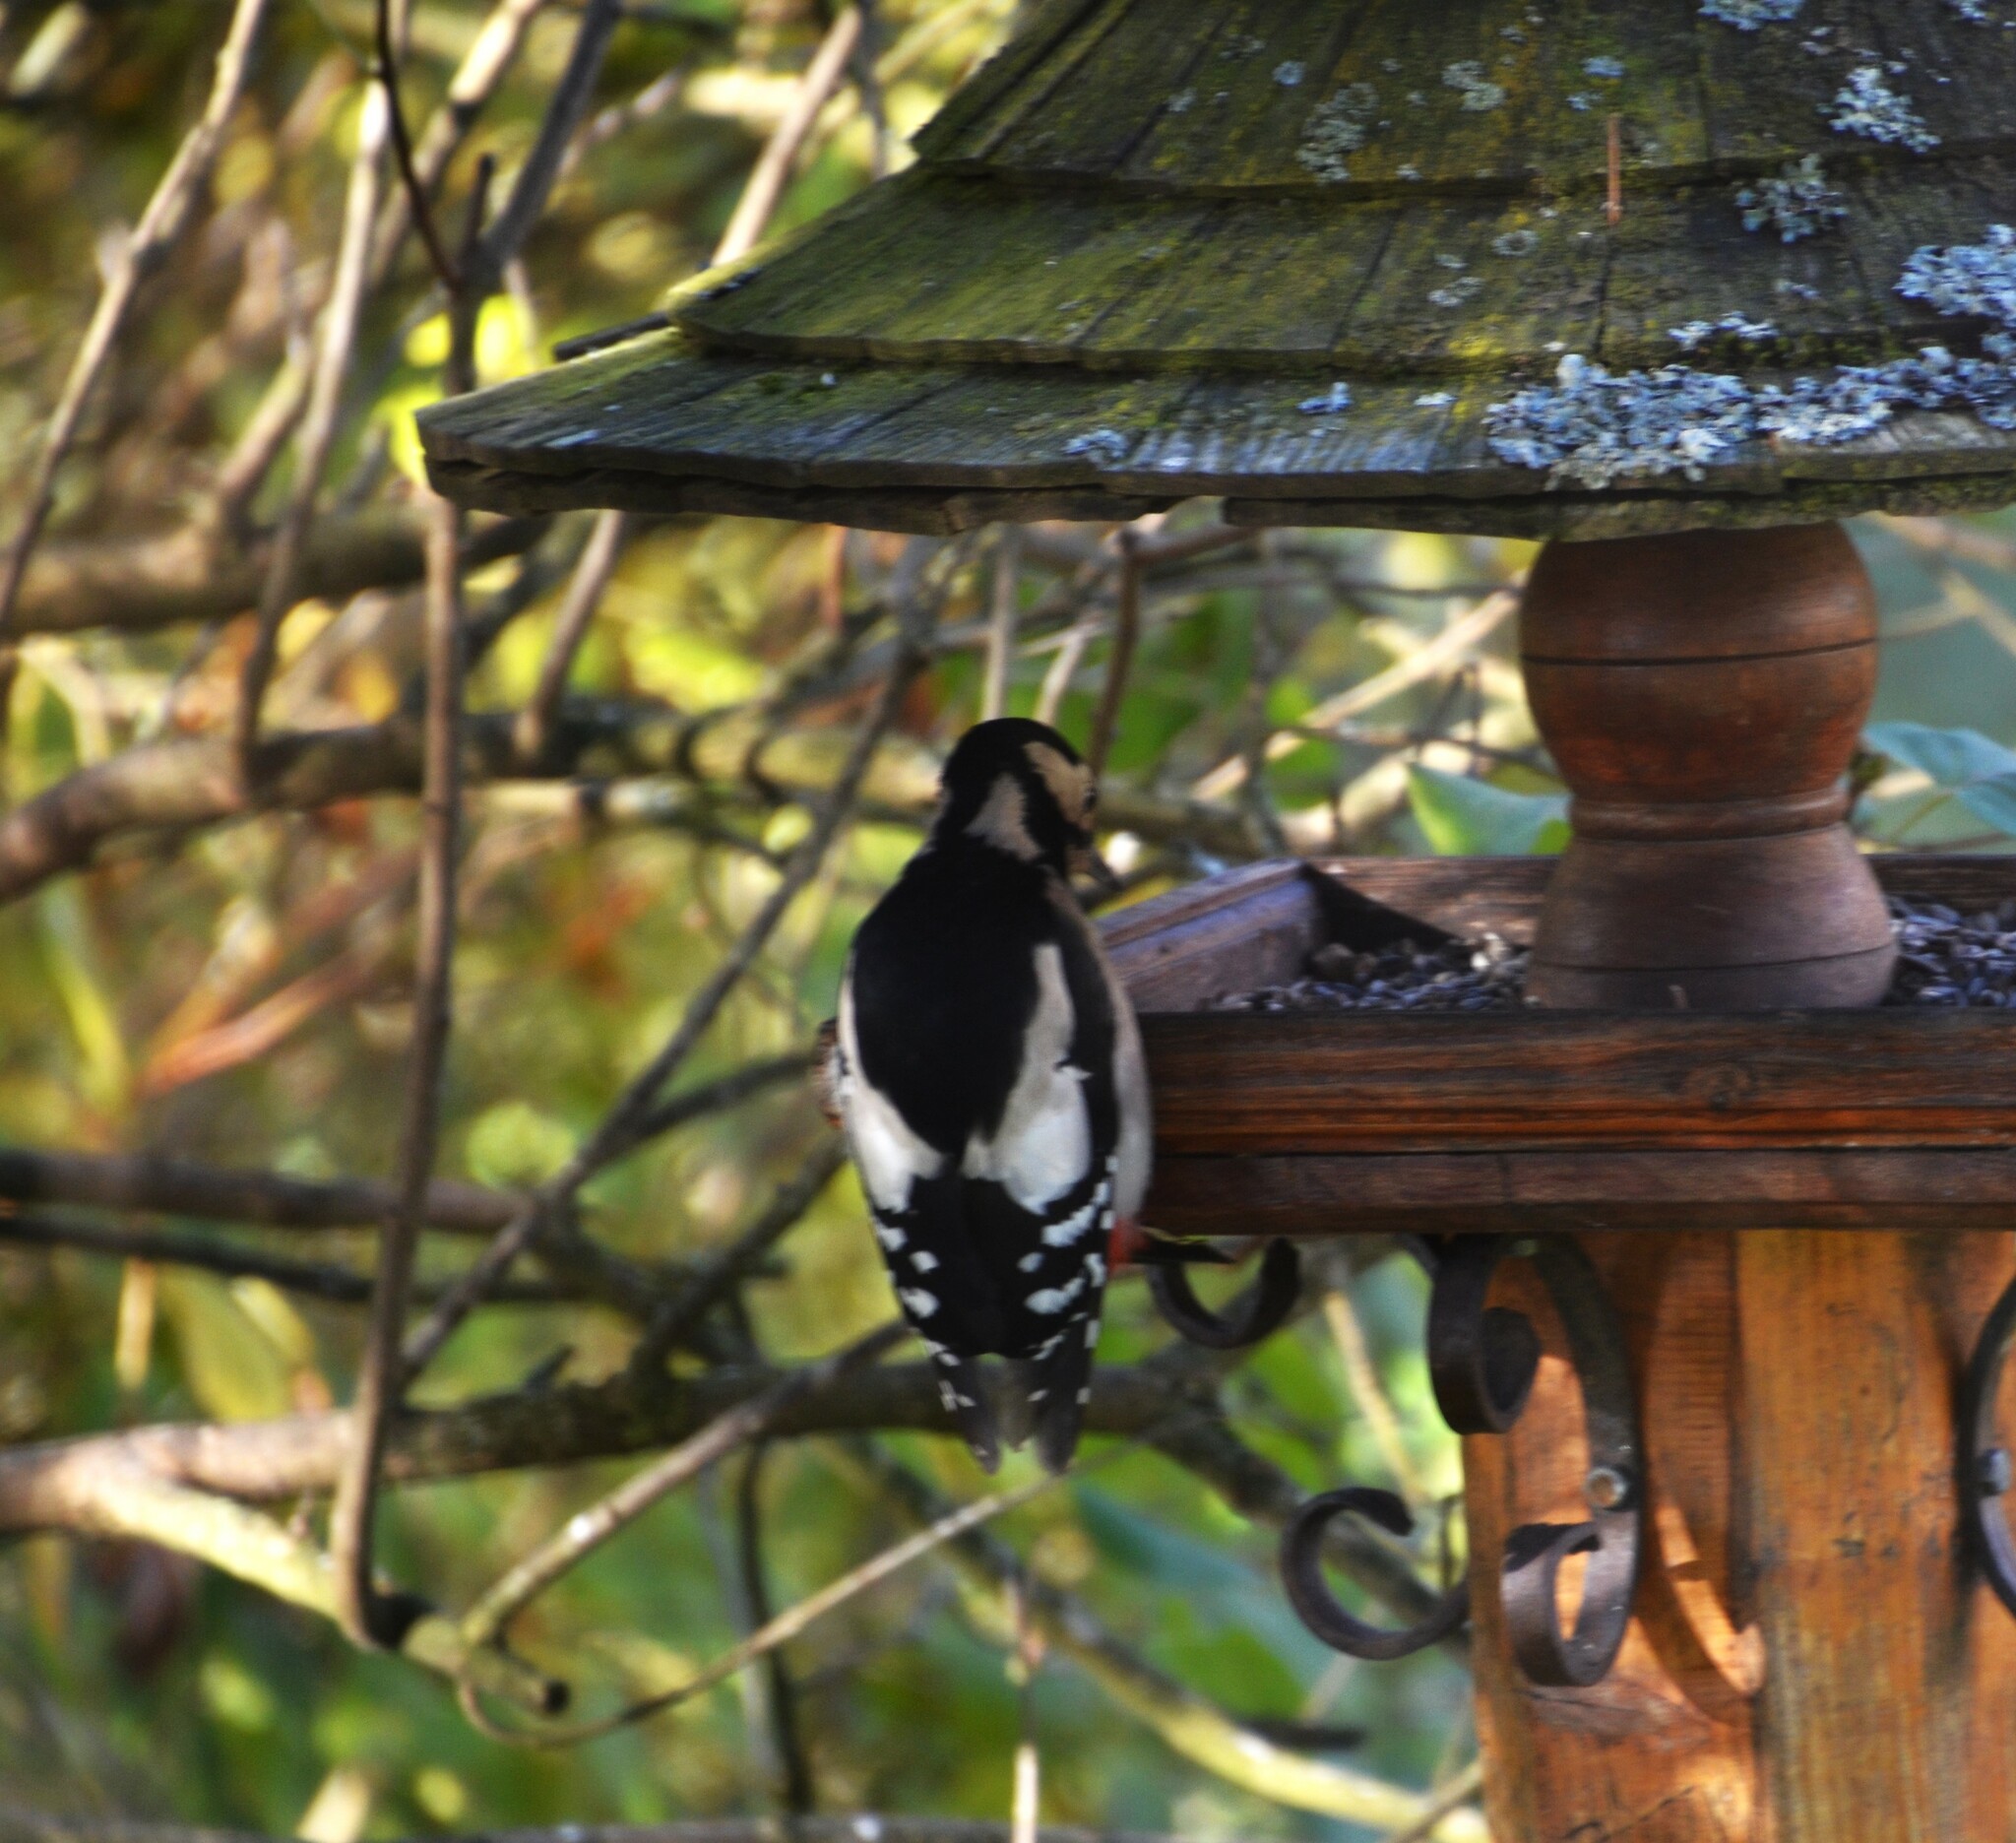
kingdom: Animalia
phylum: Chordata
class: Aves
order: Piciformes
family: Picidae
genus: Dendrocopos
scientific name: Dendrocopos major
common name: Great spotted woodpecker
